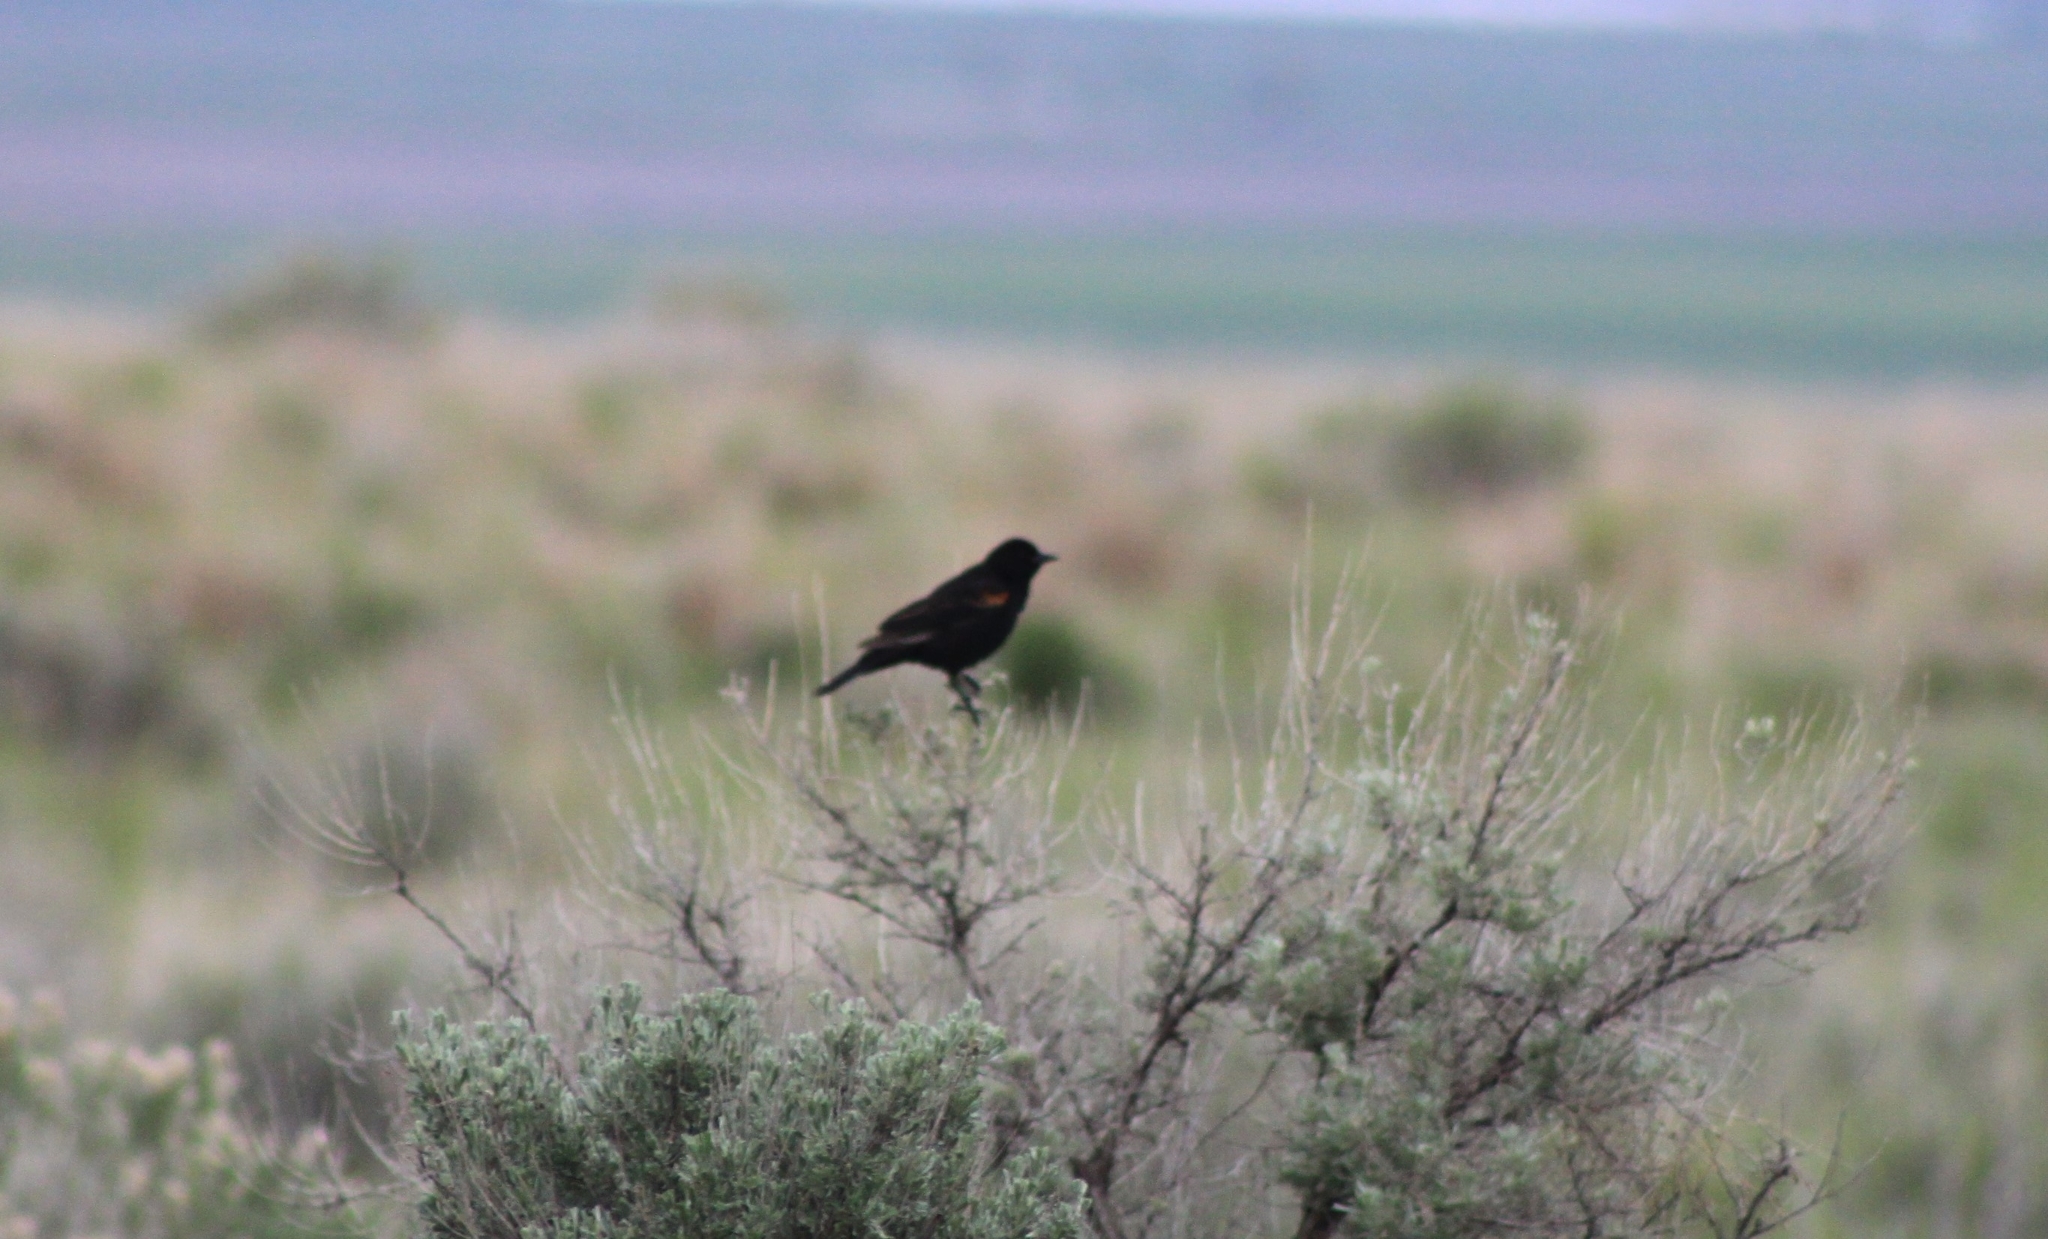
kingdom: Animalia
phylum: Chordata
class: Aves
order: Passeriformes
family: Icteridae
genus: Agelaius
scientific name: Agelaius phoeniceus
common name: Red-winged blackbird
